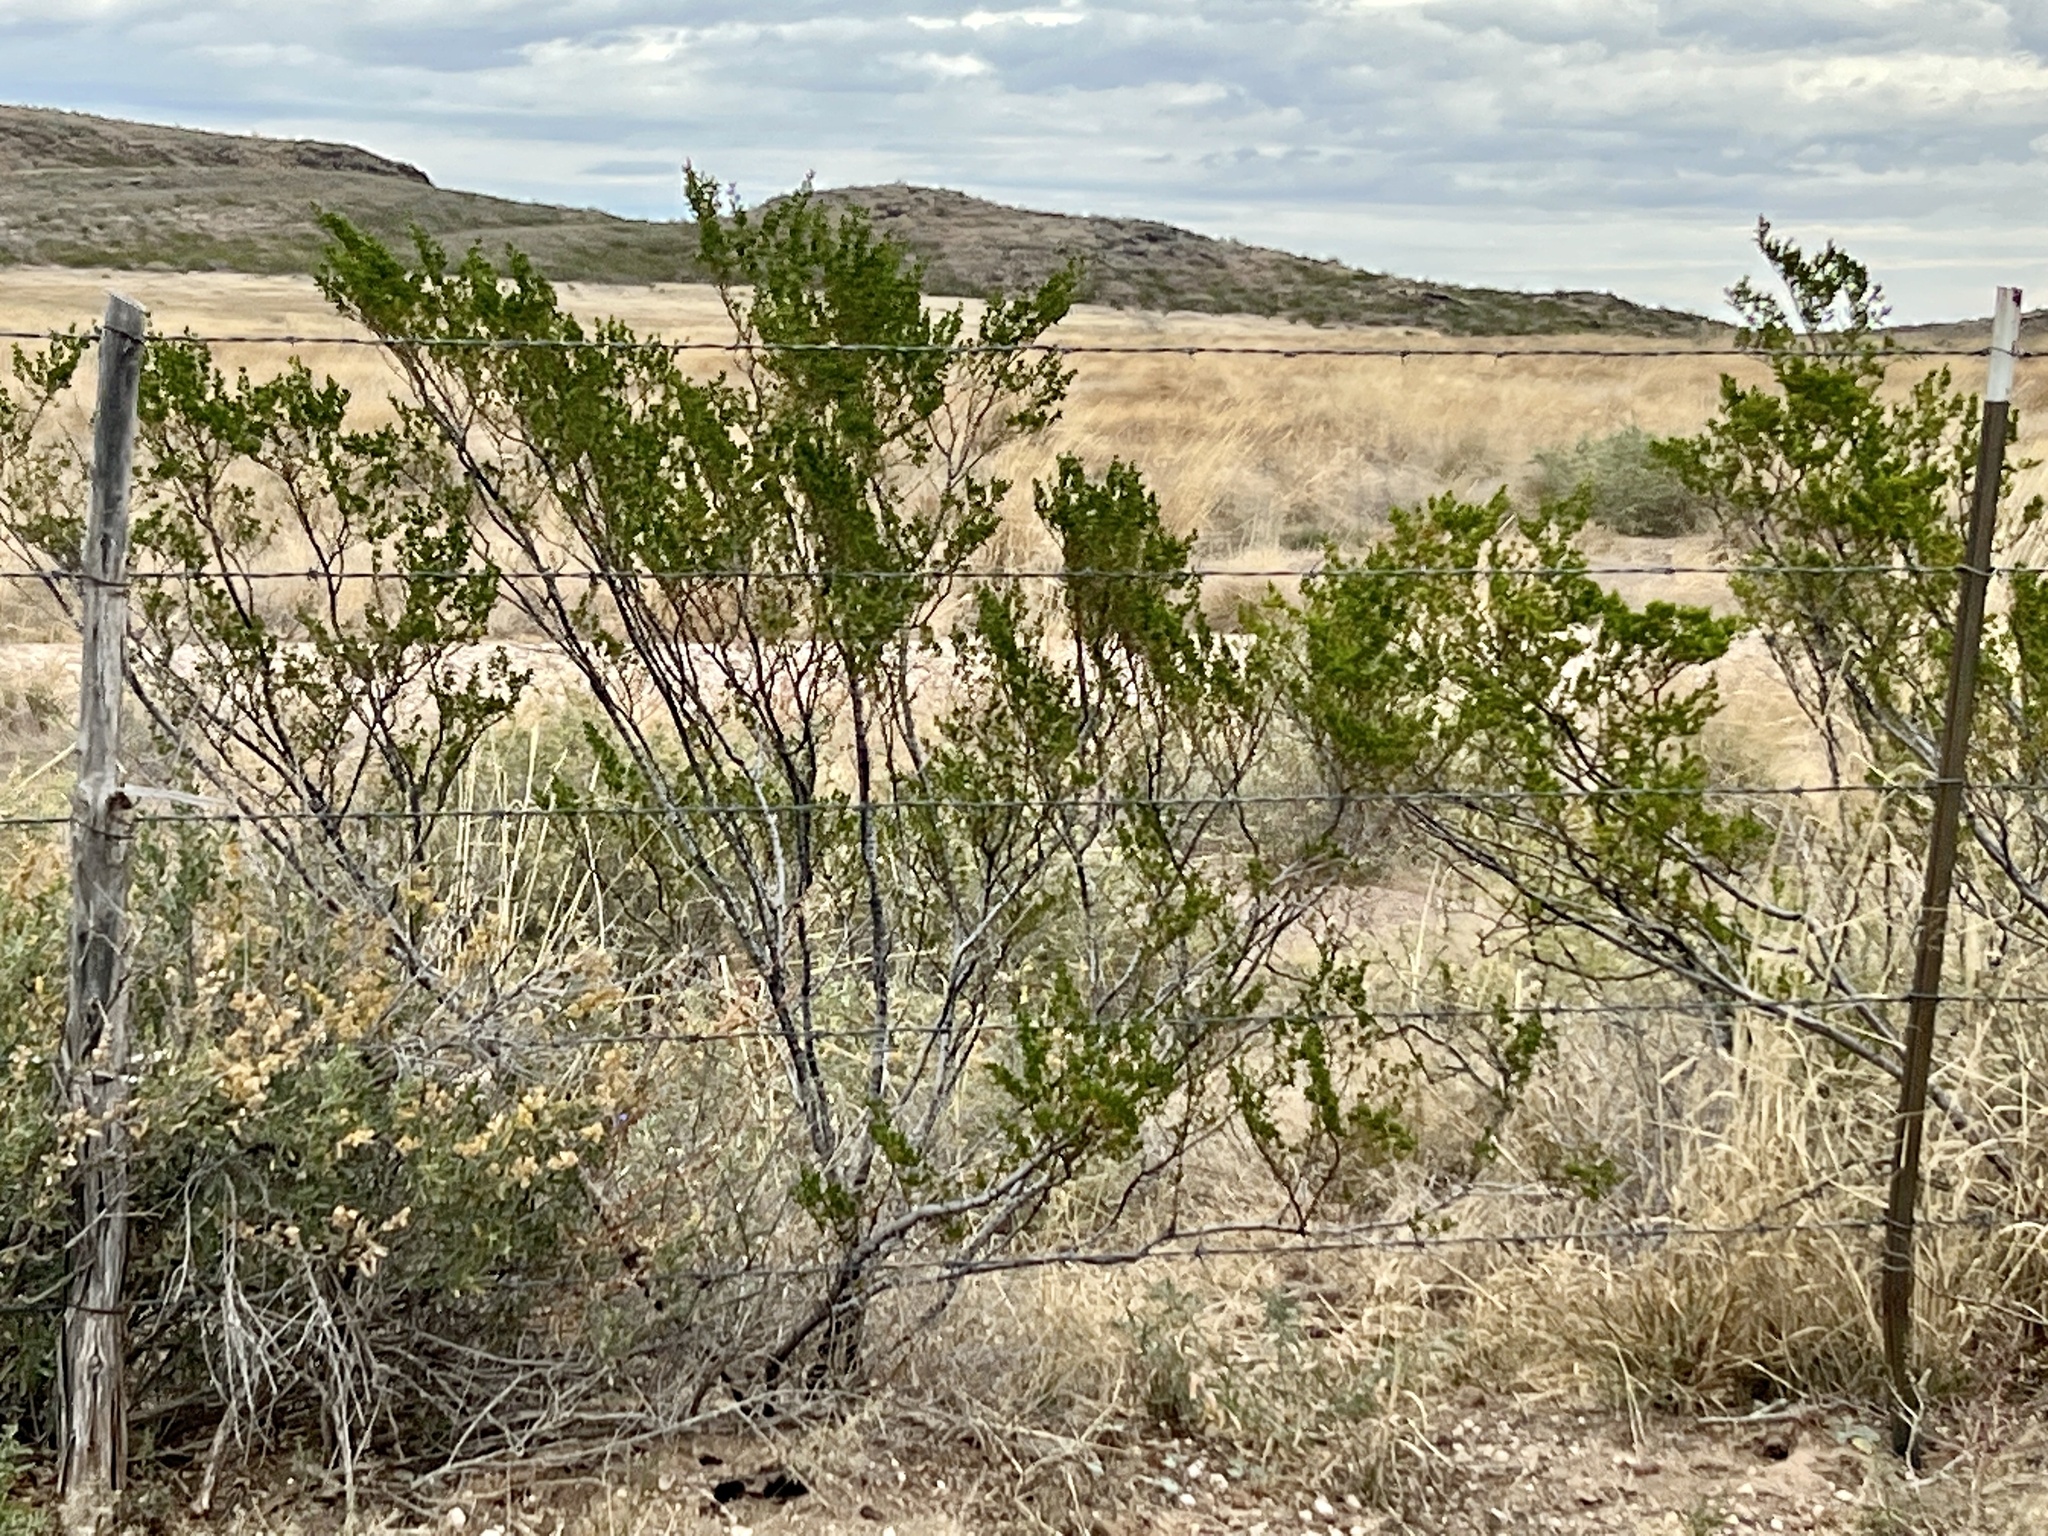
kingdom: Plantae
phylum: Tracheophyta
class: Magnoliopsida
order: Zygophyllales
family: Zygophyllaceae
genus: Larrea
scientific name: Larrea tridentata
